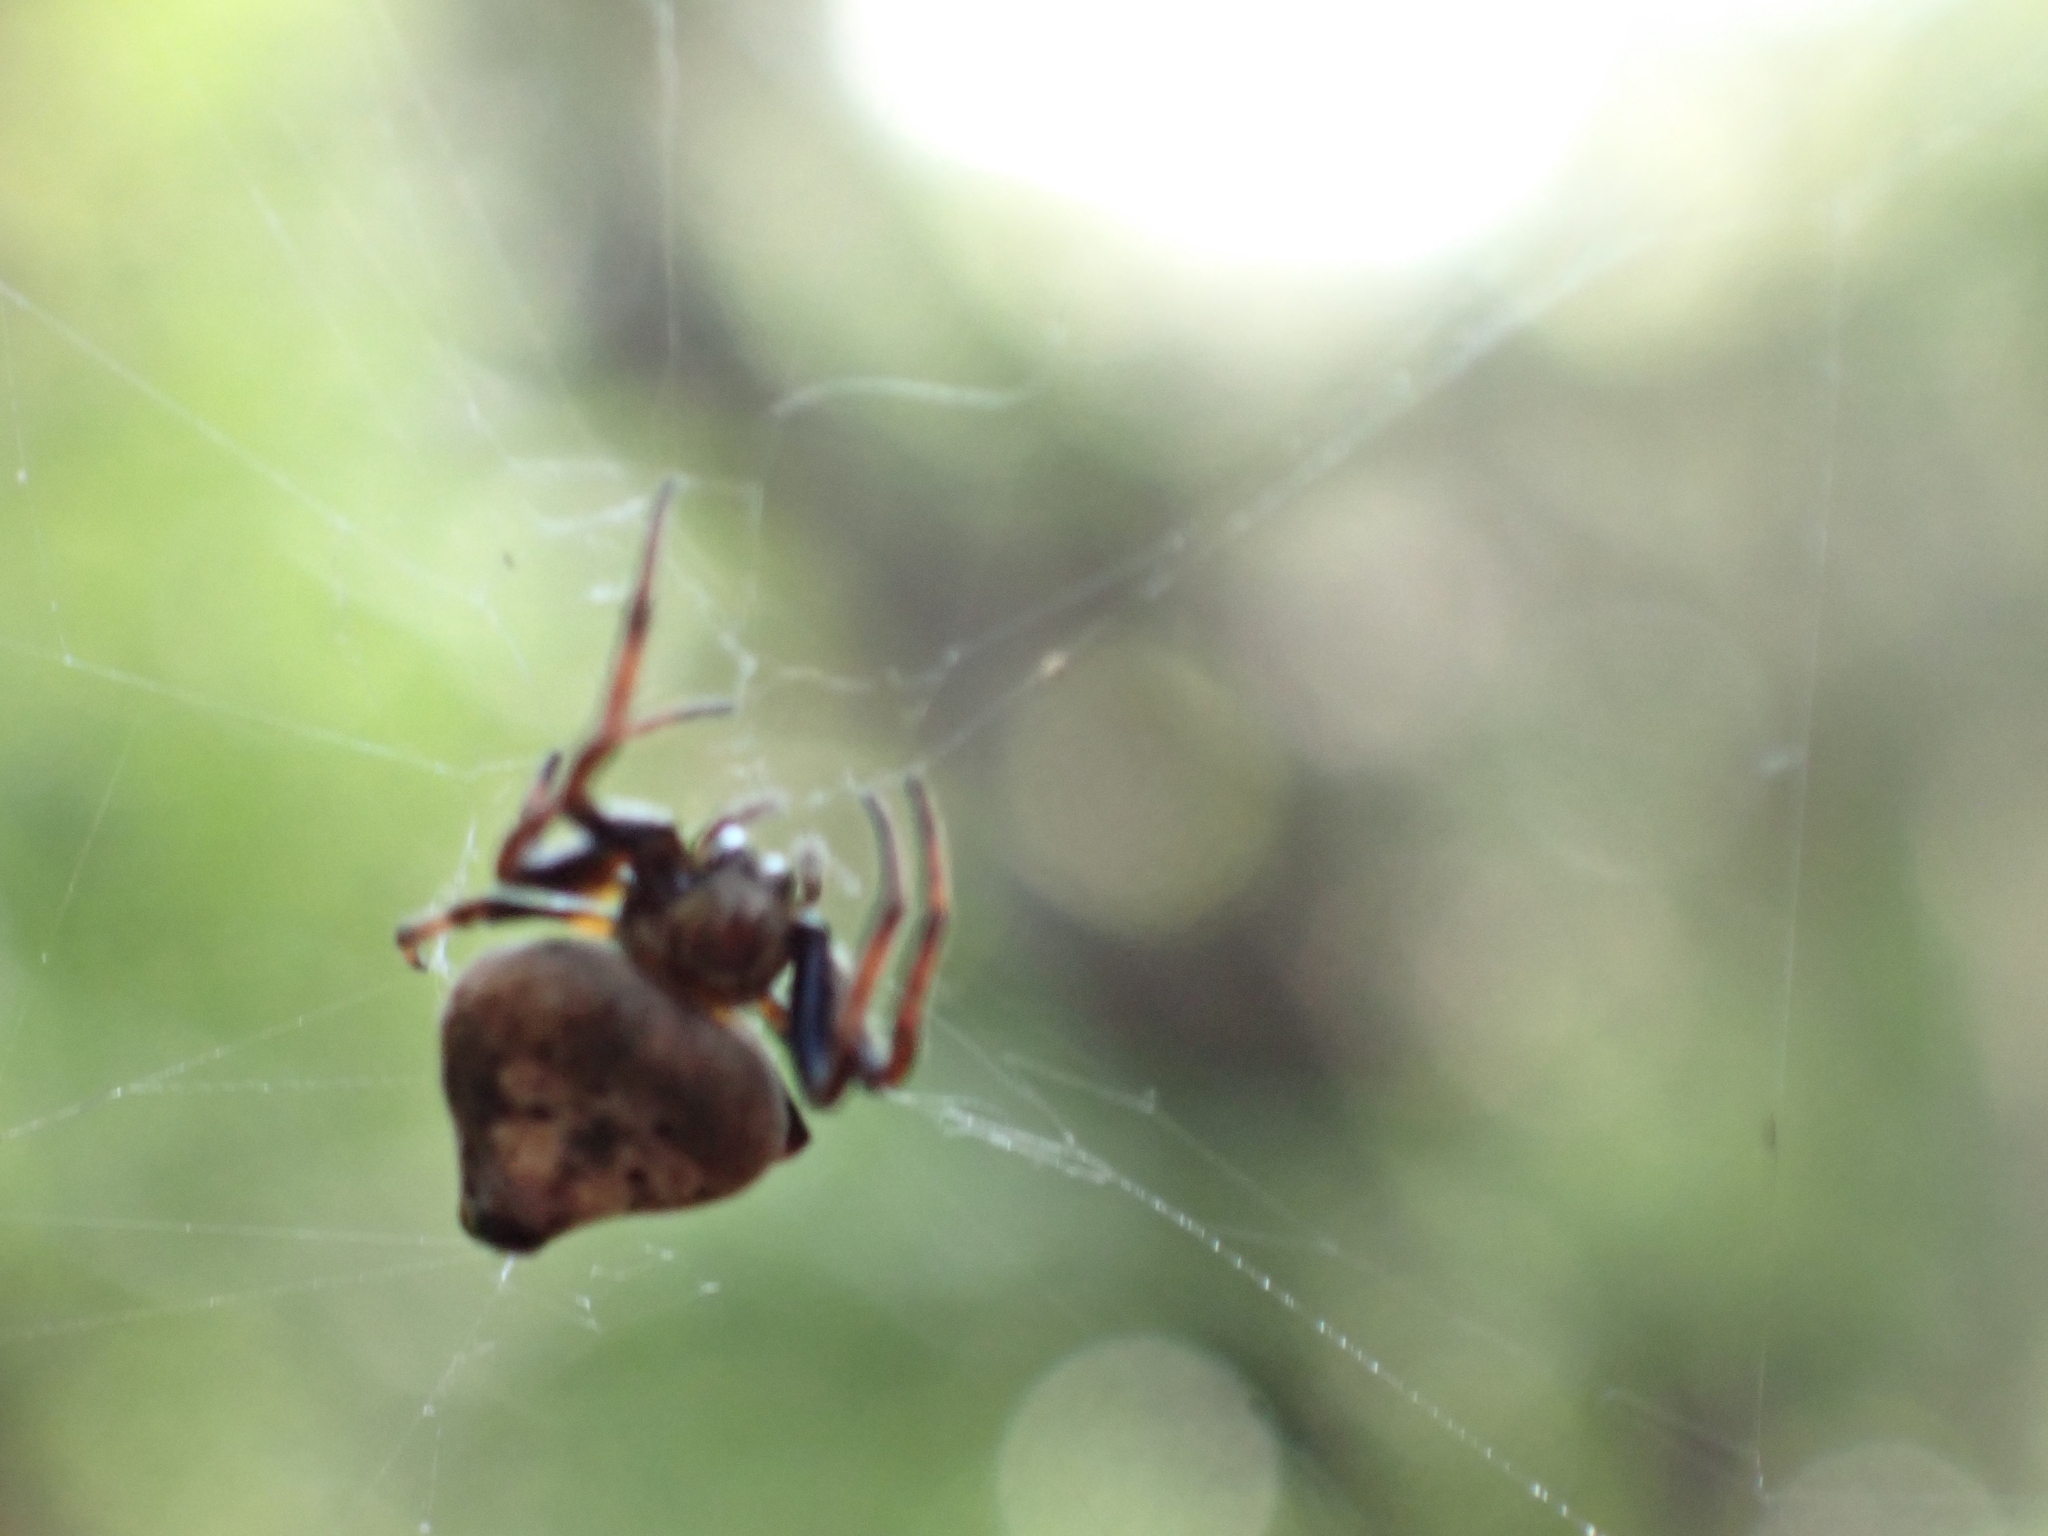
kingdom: Animalia
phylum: Arthropoda
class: Arachnida
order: Araneae
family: Araneidae
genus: Eriovixia
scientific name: Eriovixia excelsa
